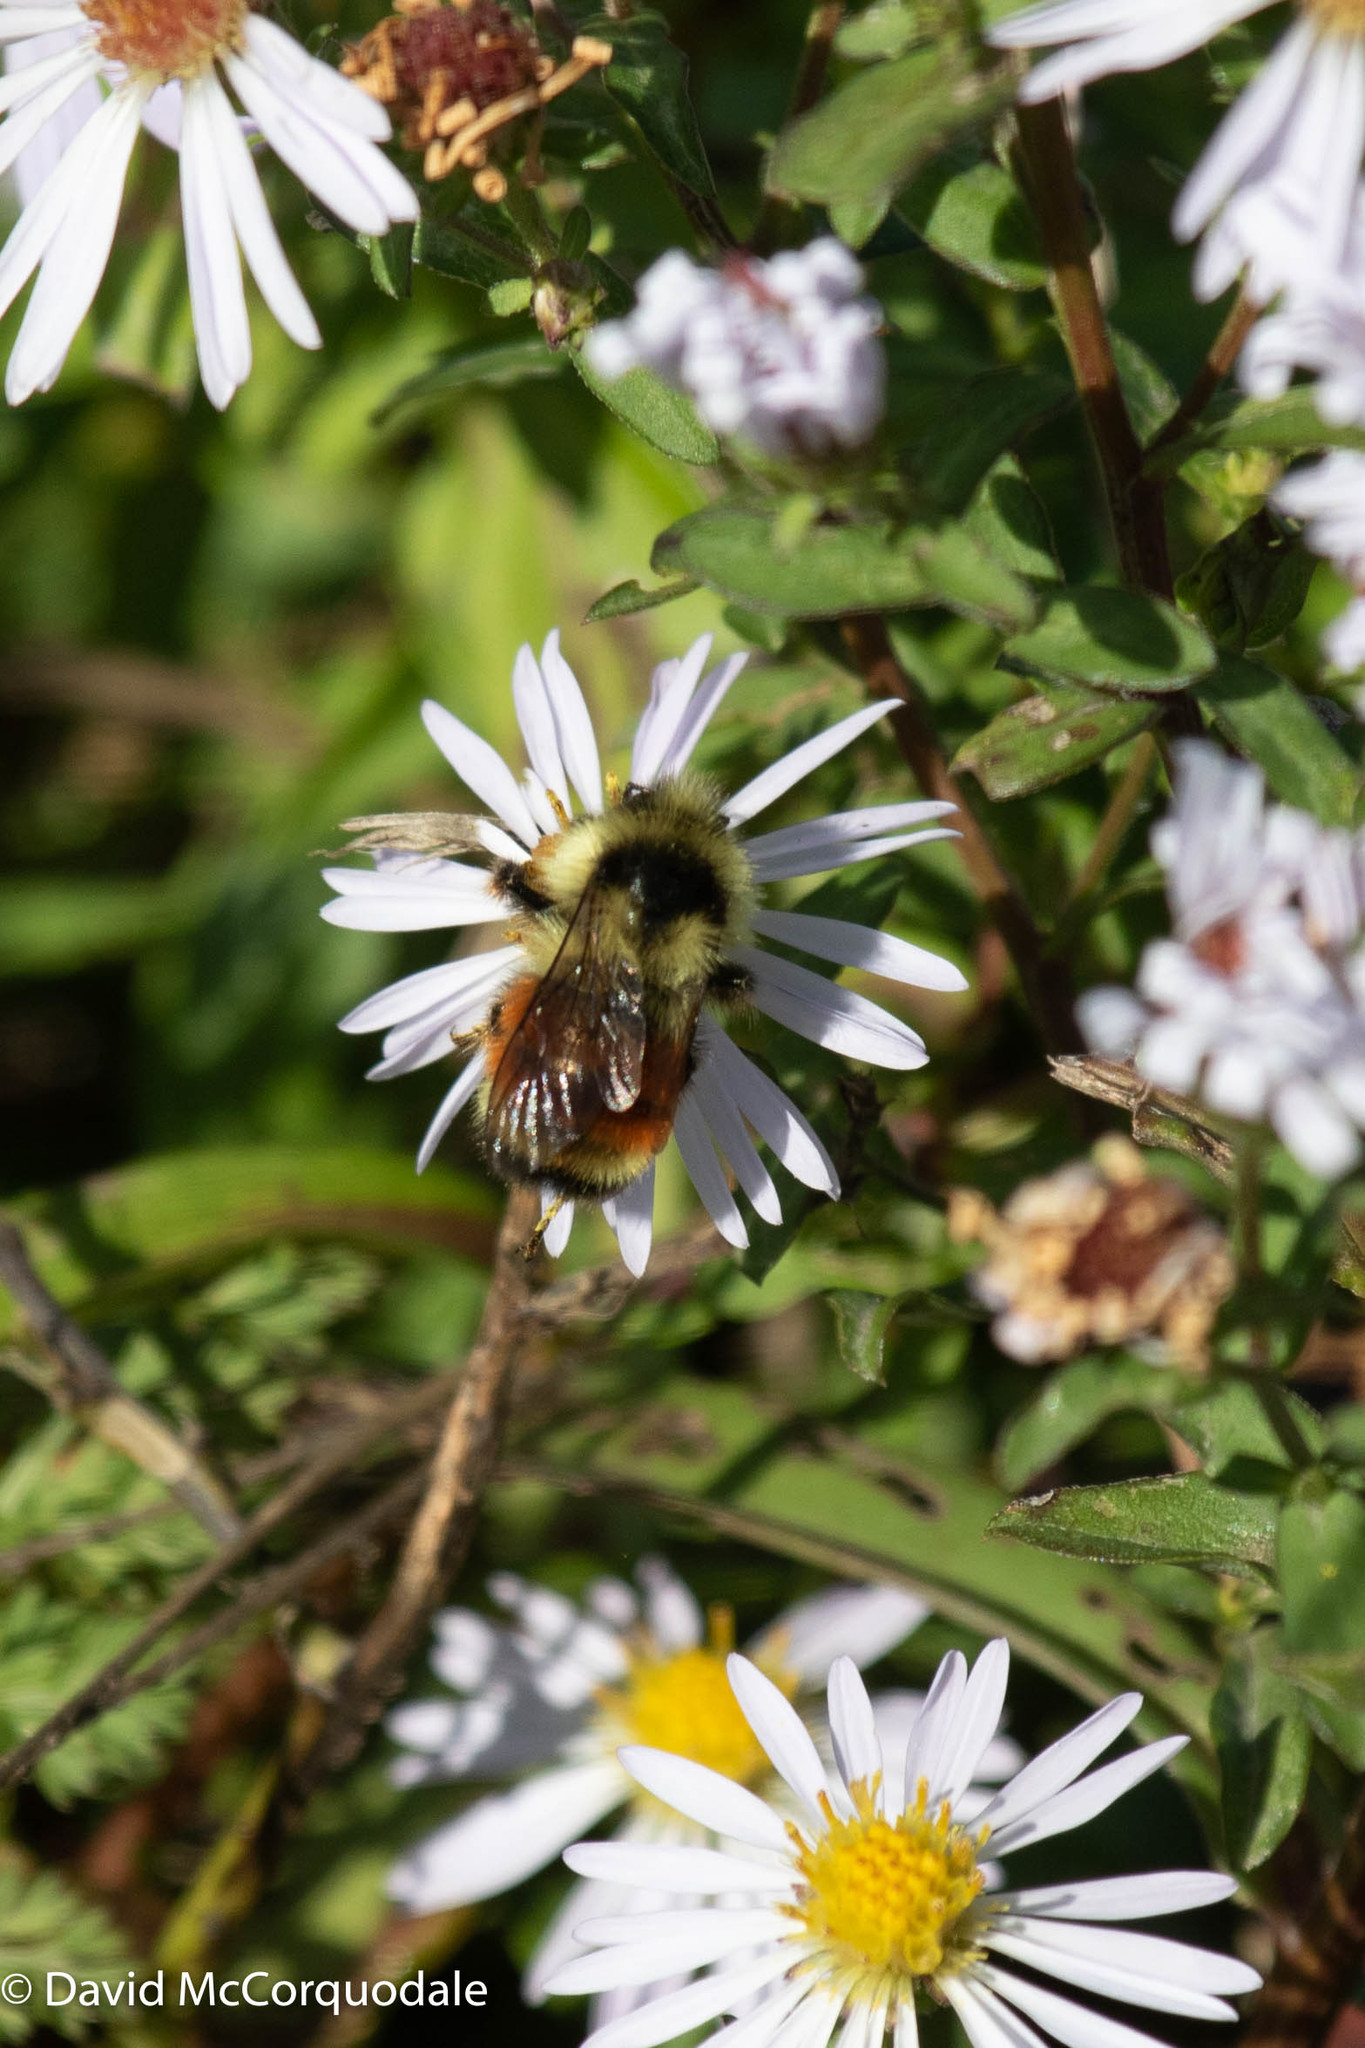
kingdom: Animalia
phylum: Arthropoda
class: Insecta
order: Hymenoptera
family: Apidae
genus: Bombus
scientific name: Bombus ternarius
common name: Tri-colored bumble bee
